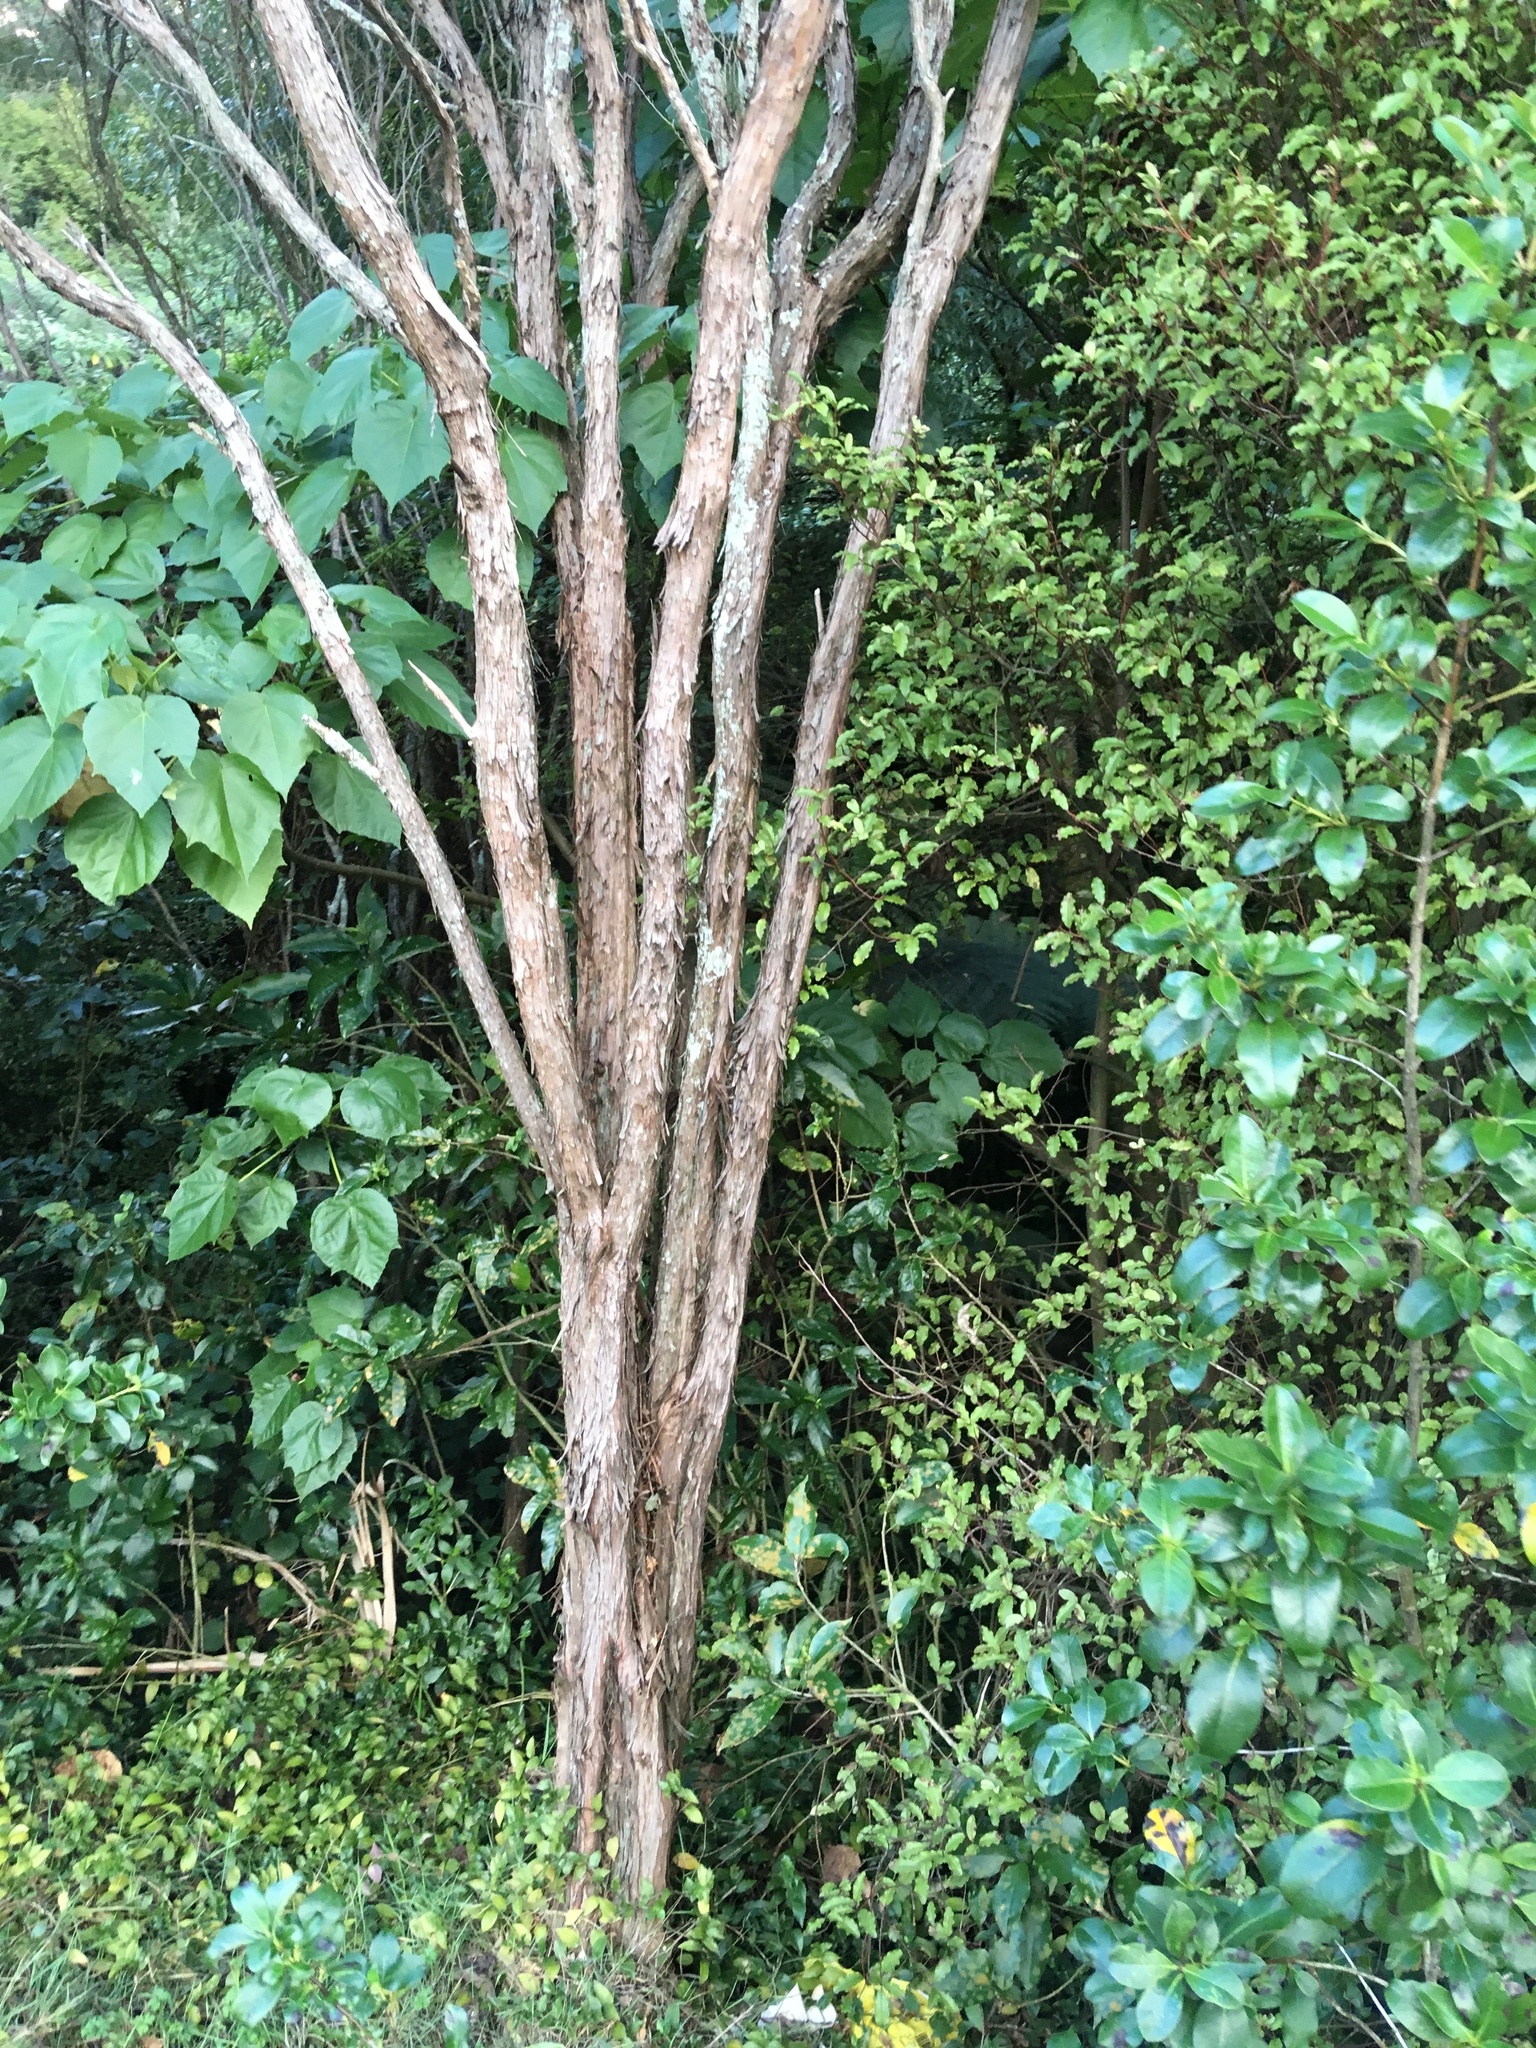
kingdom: Plantae
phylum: Tracheophyta
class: Liliopsida
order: Commelinales
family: Commelinaceae
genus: Tradescantia
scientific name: Tradescantia fluminensis
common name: Wandering-jew
